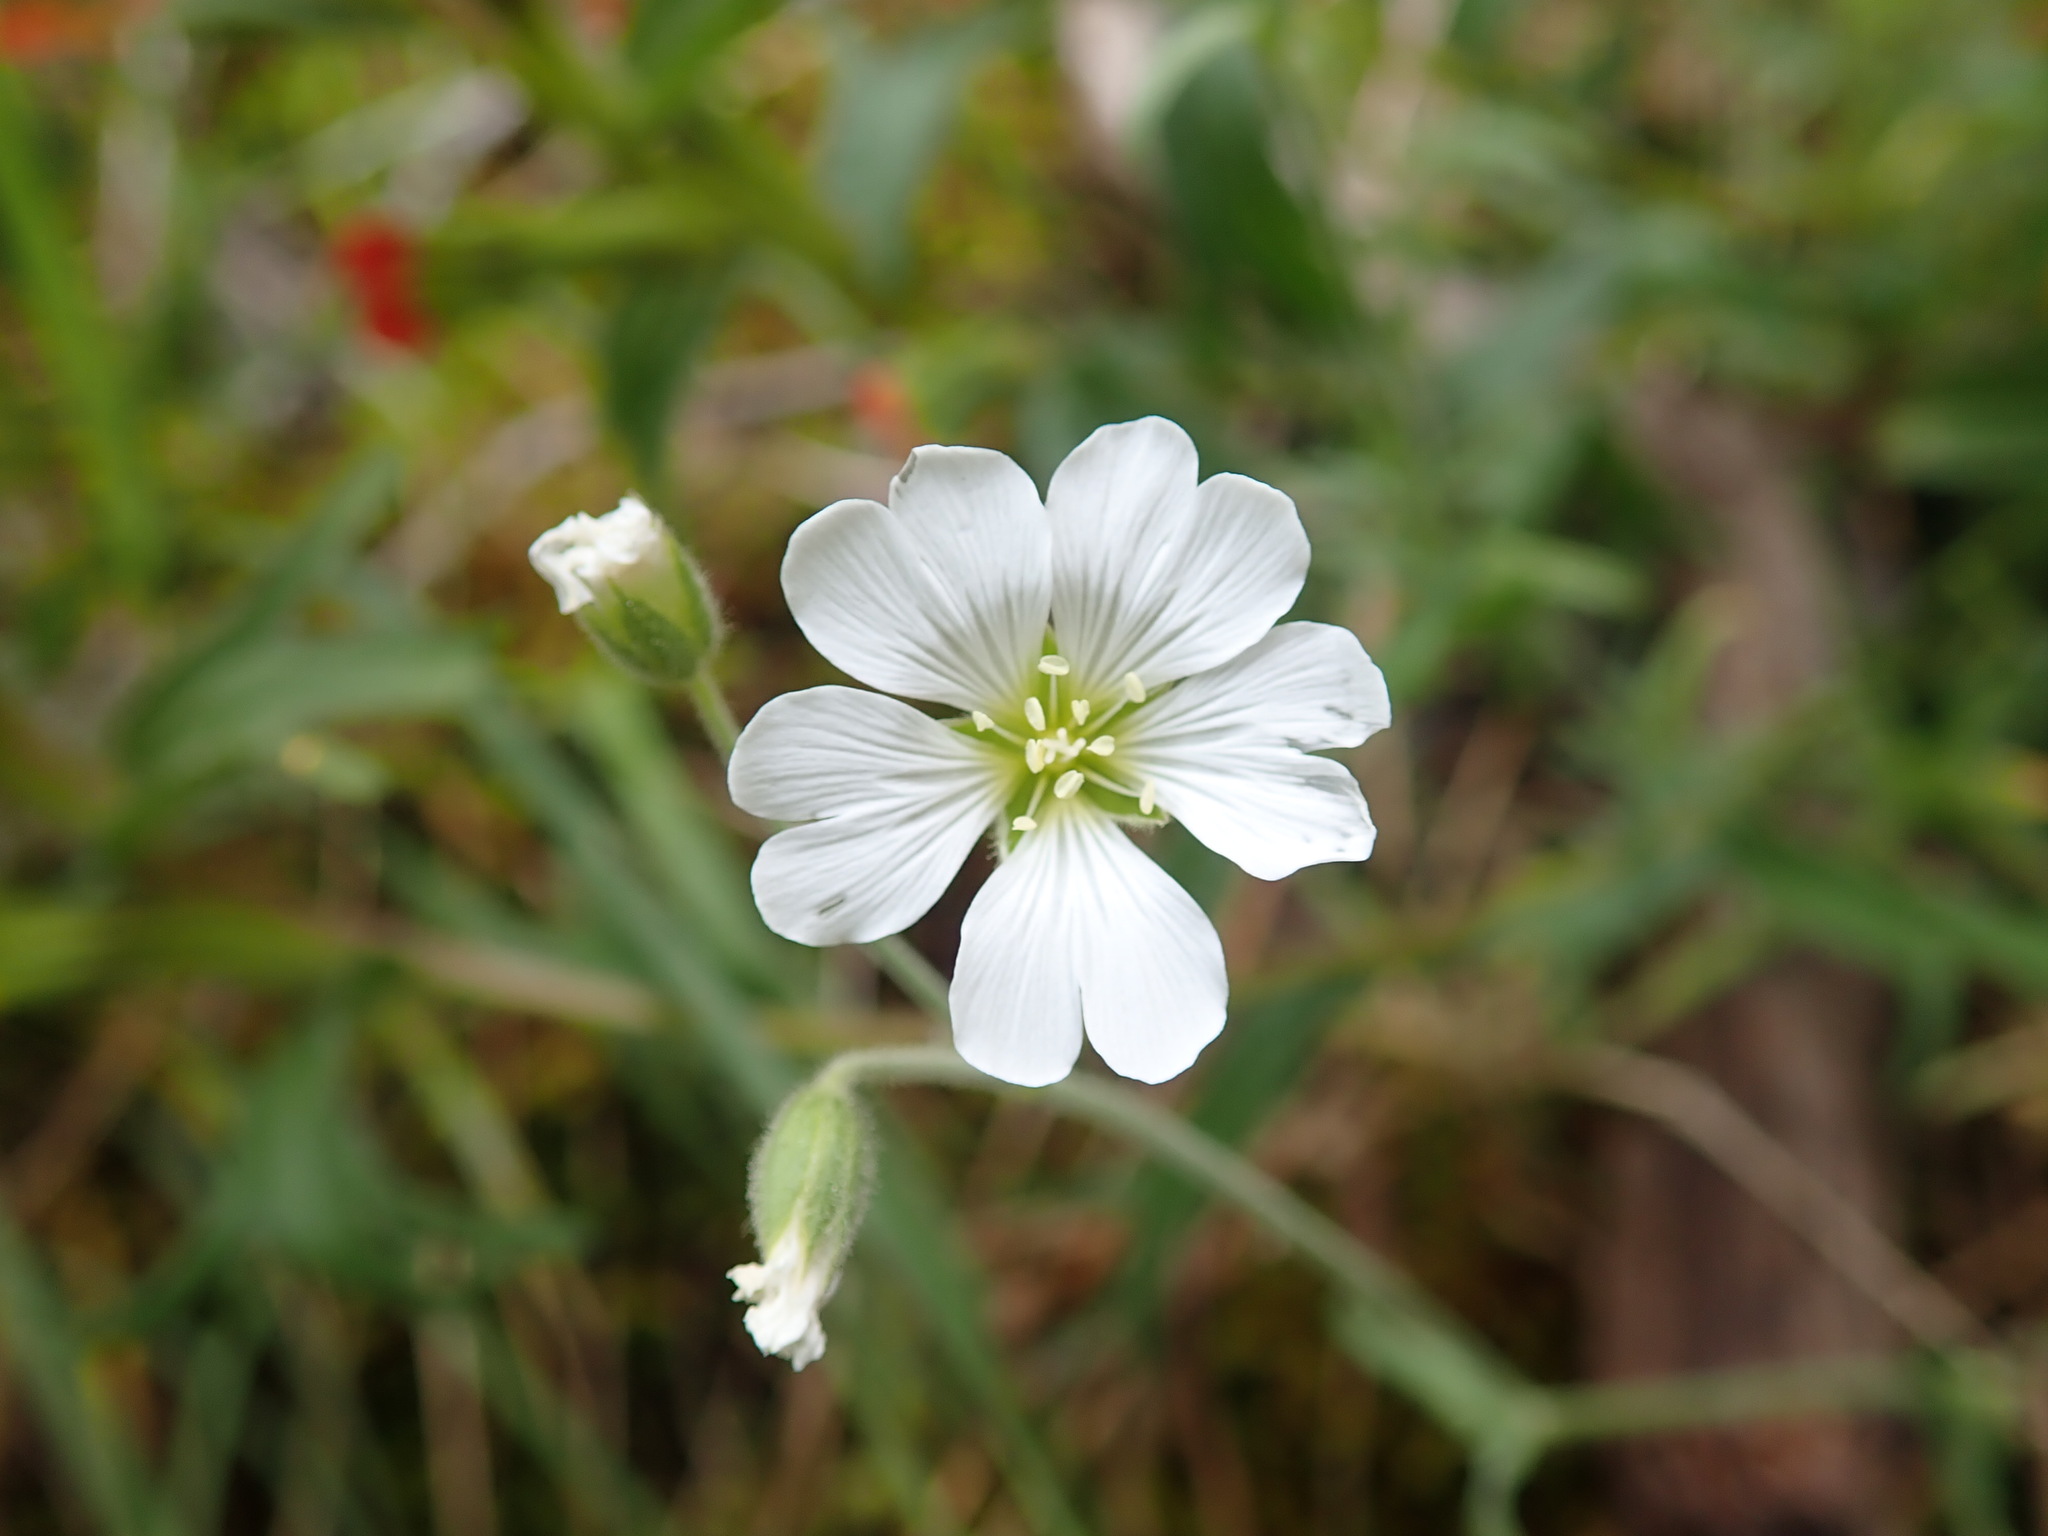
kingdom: Plantae
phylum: Tracheophyta
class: Magnoliopsida
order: Caryophyllales
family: Caryophyllaceae
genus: Cerastium
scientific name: Cerastium arvense
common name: Field mouse-ear
